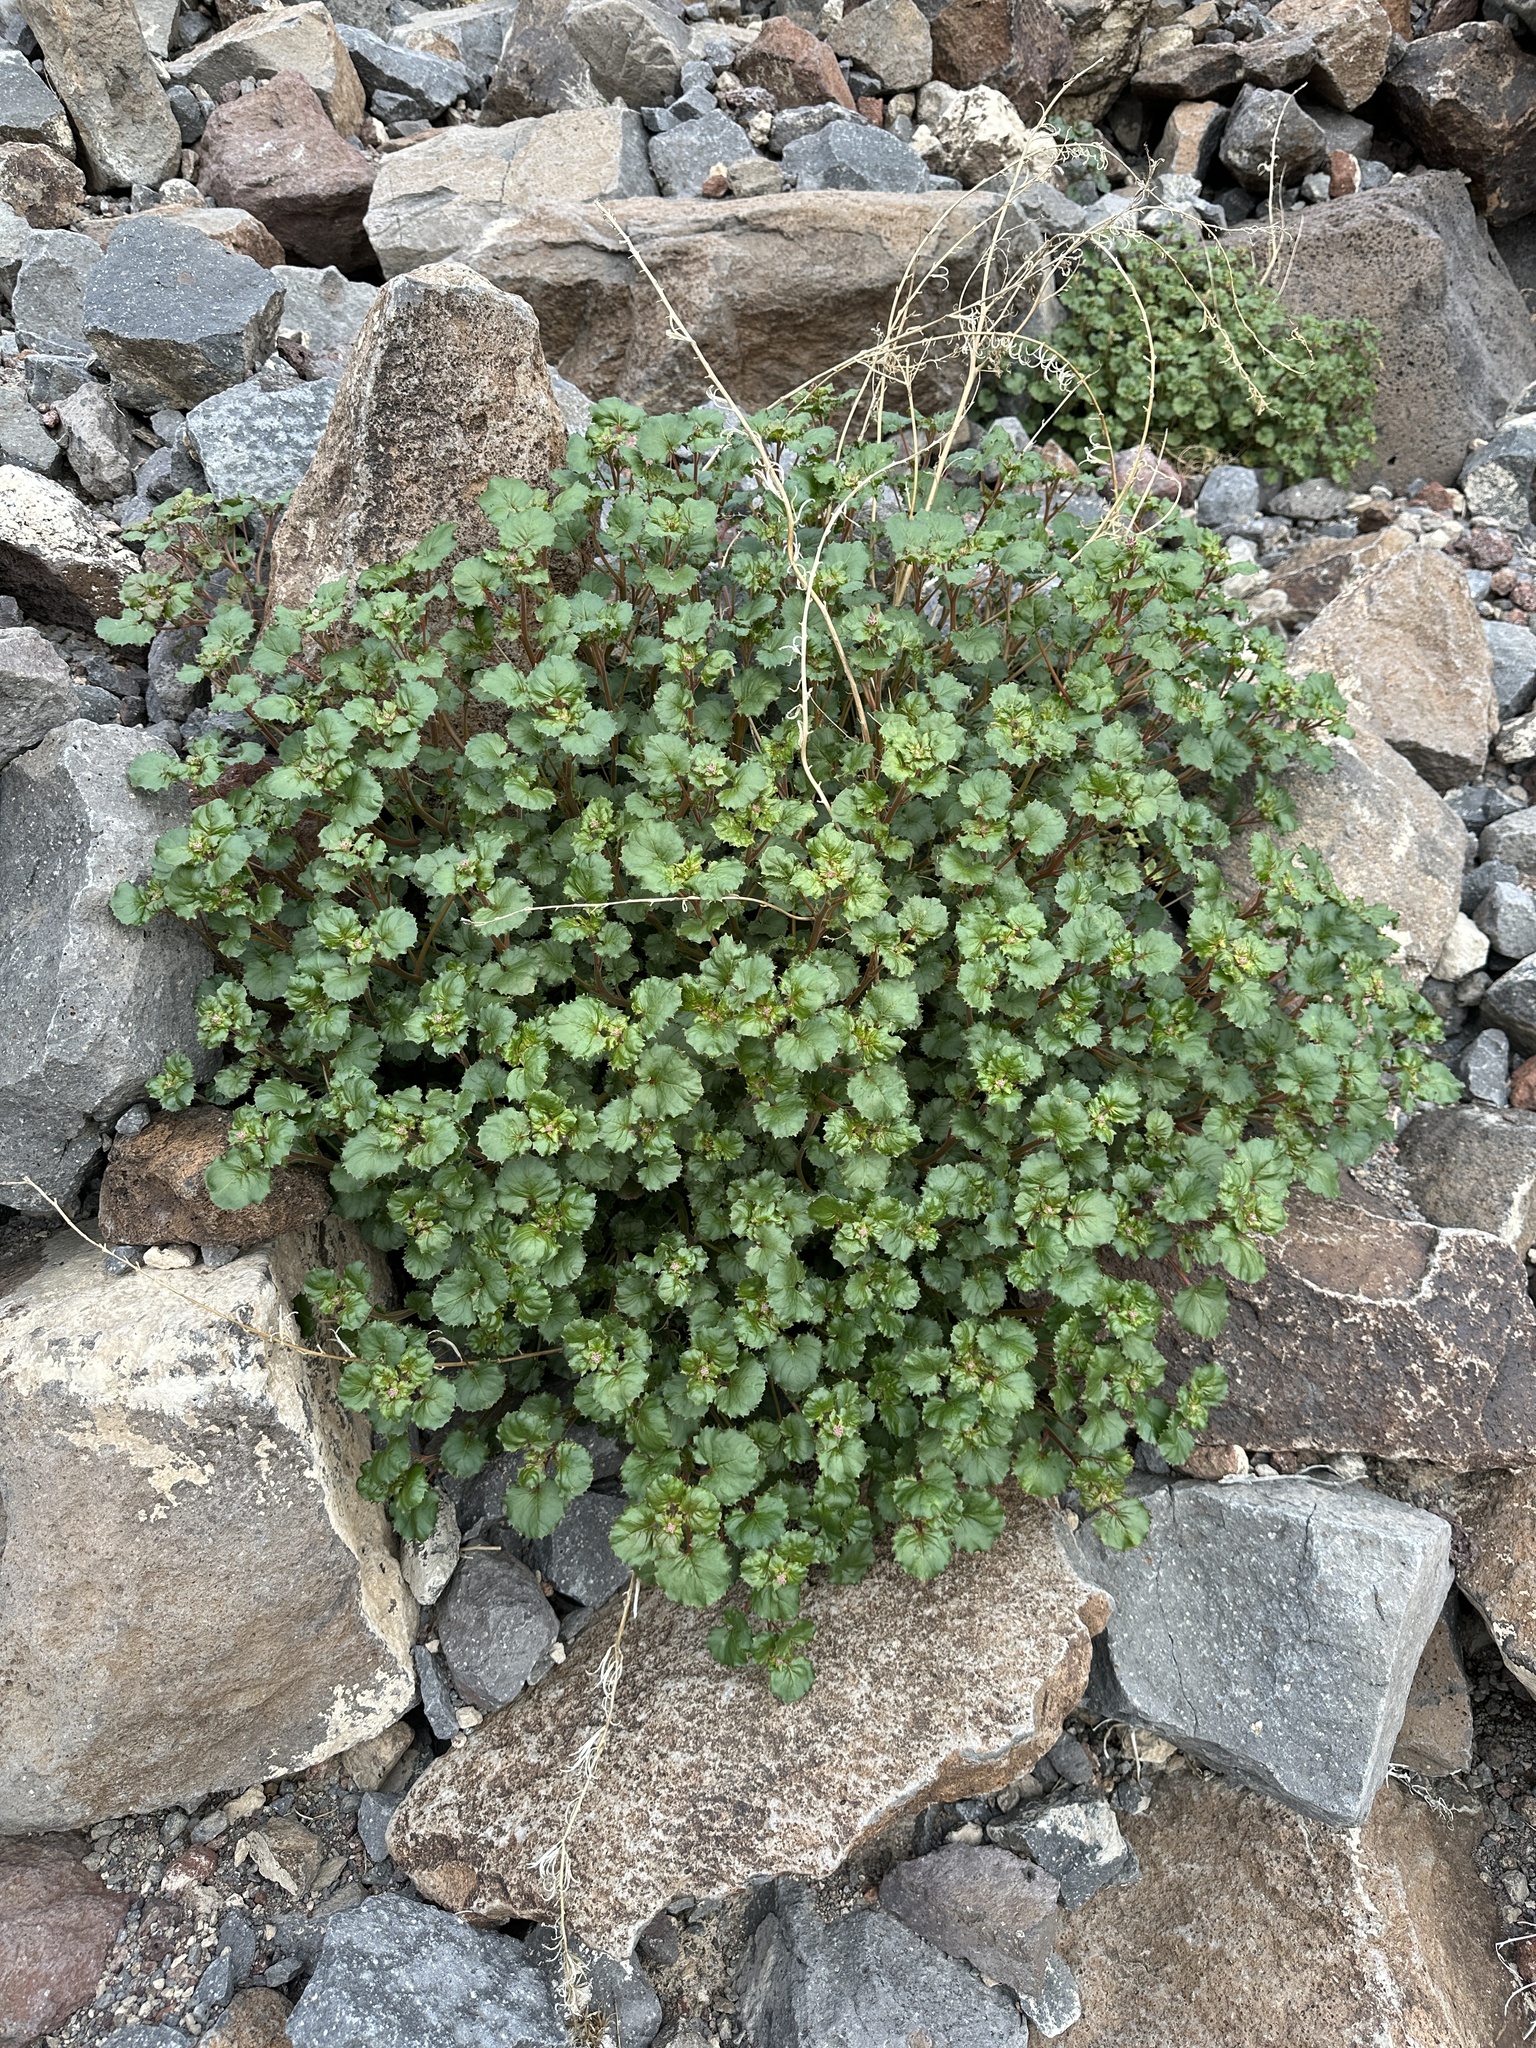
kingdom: Plantae
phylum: Tracheophyta
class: Magnoliopsida
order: Myrtales
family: Onagraceae
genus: Chylismia
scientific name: Chylismia cardiophylla
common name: Heartleaf suncup
